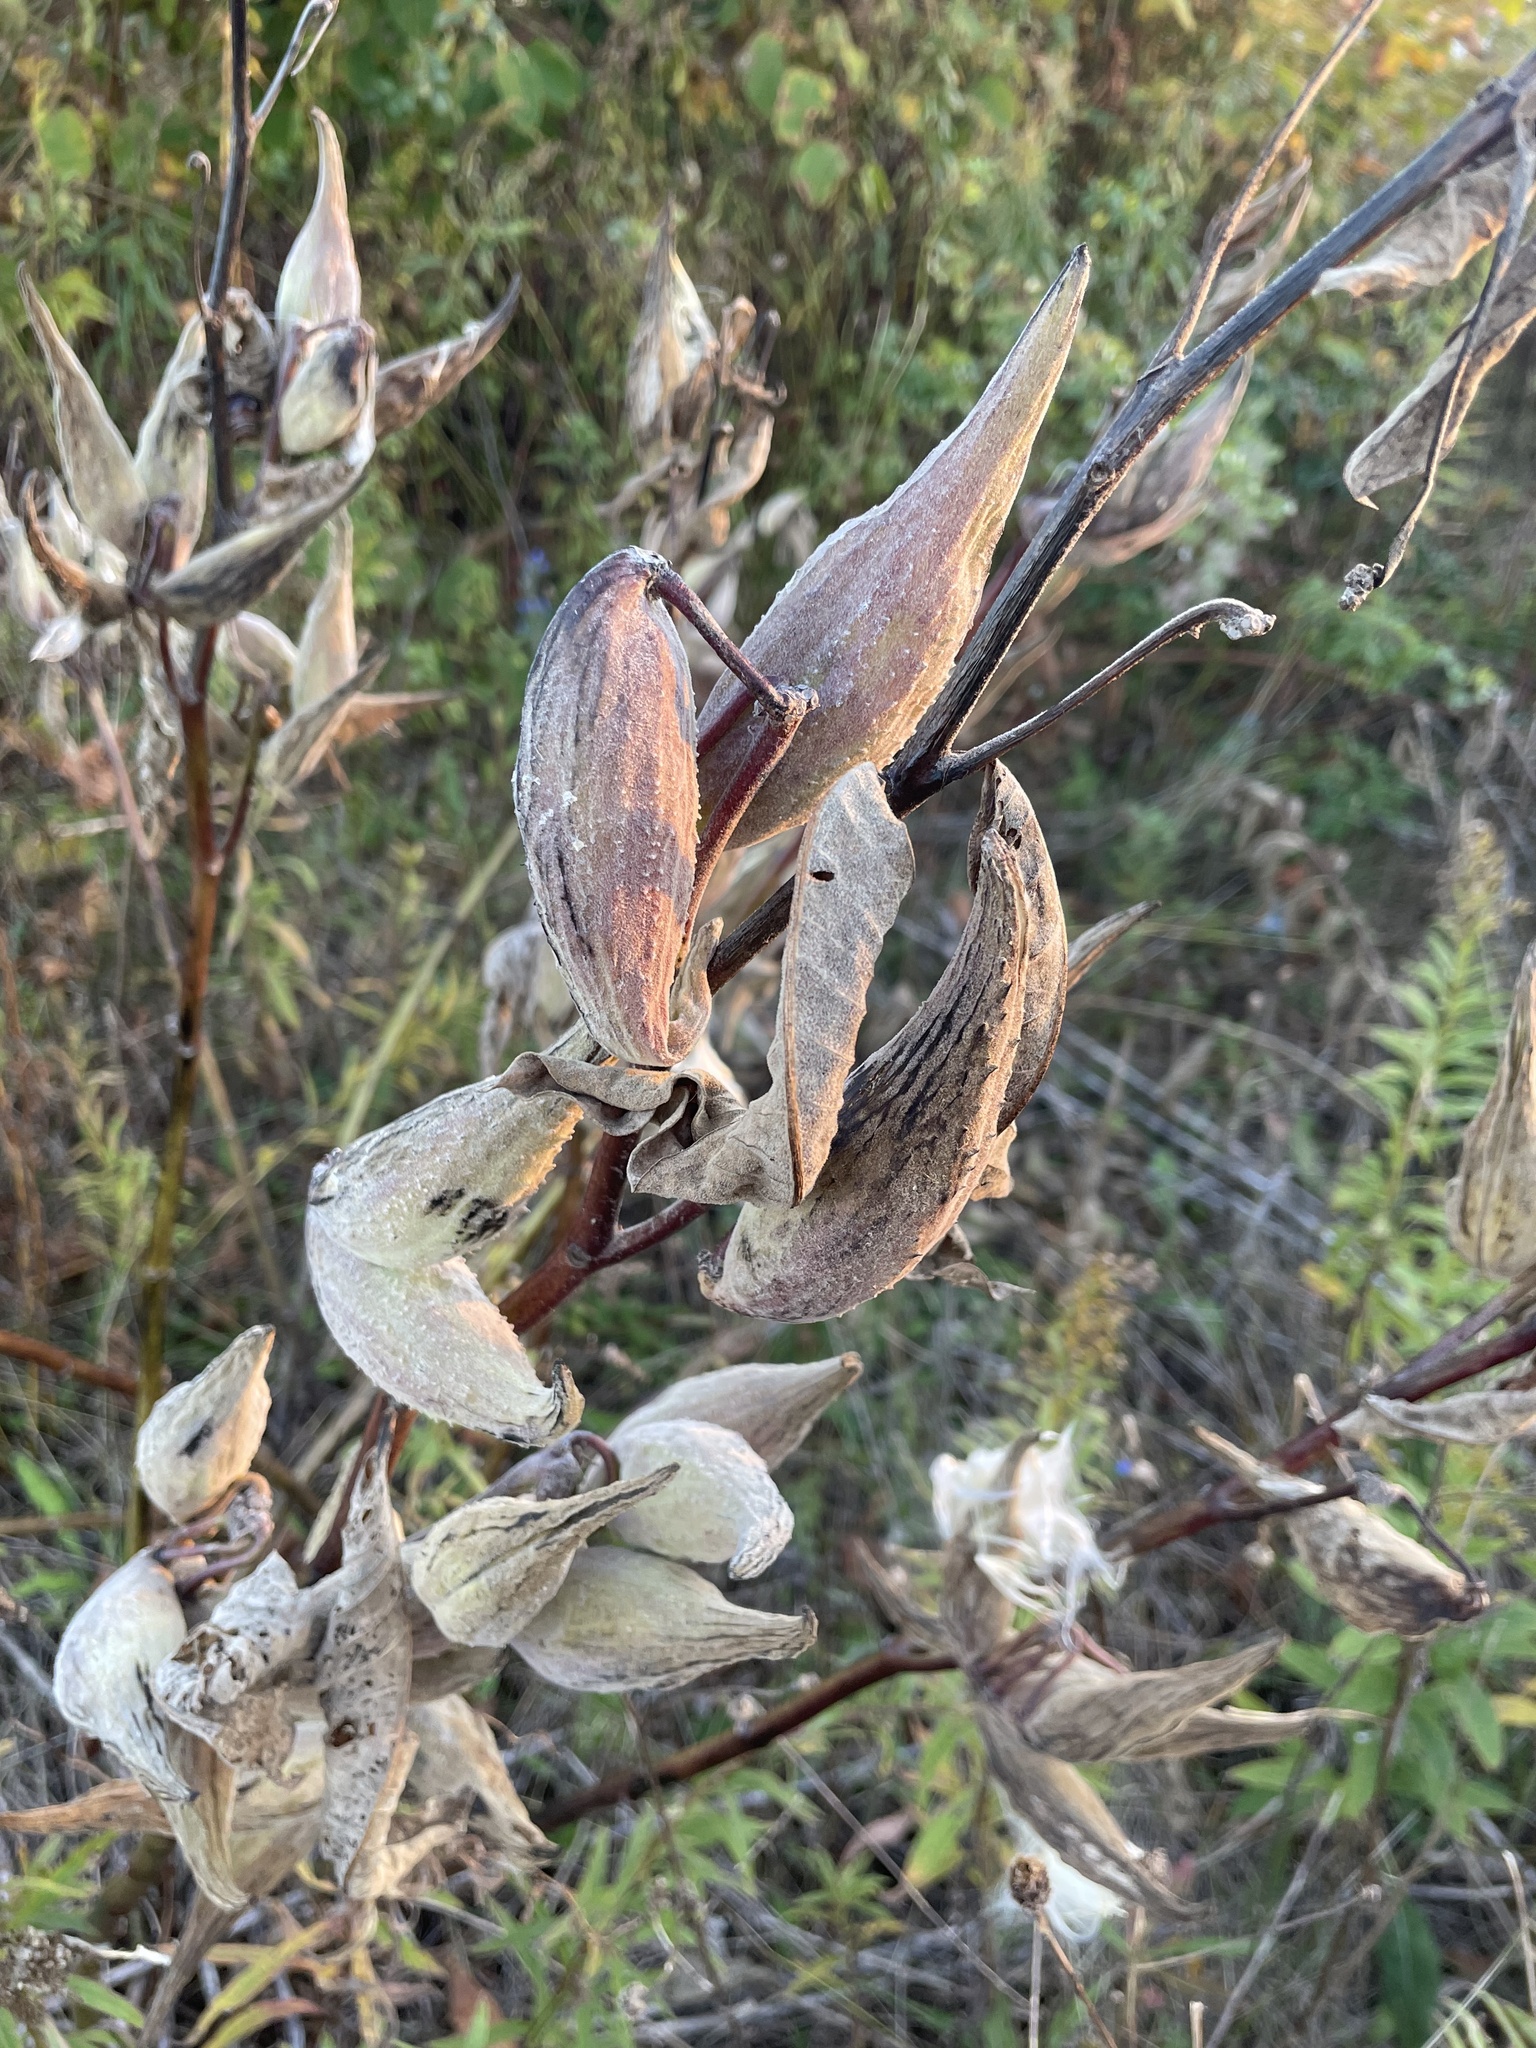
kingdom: Plantae
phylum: Tracheophyta
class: Magnoliopsida
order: Gentianales
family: Apocynaceae
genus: Asclepias
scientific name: Asclepias syriaca
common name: Common milkweed
